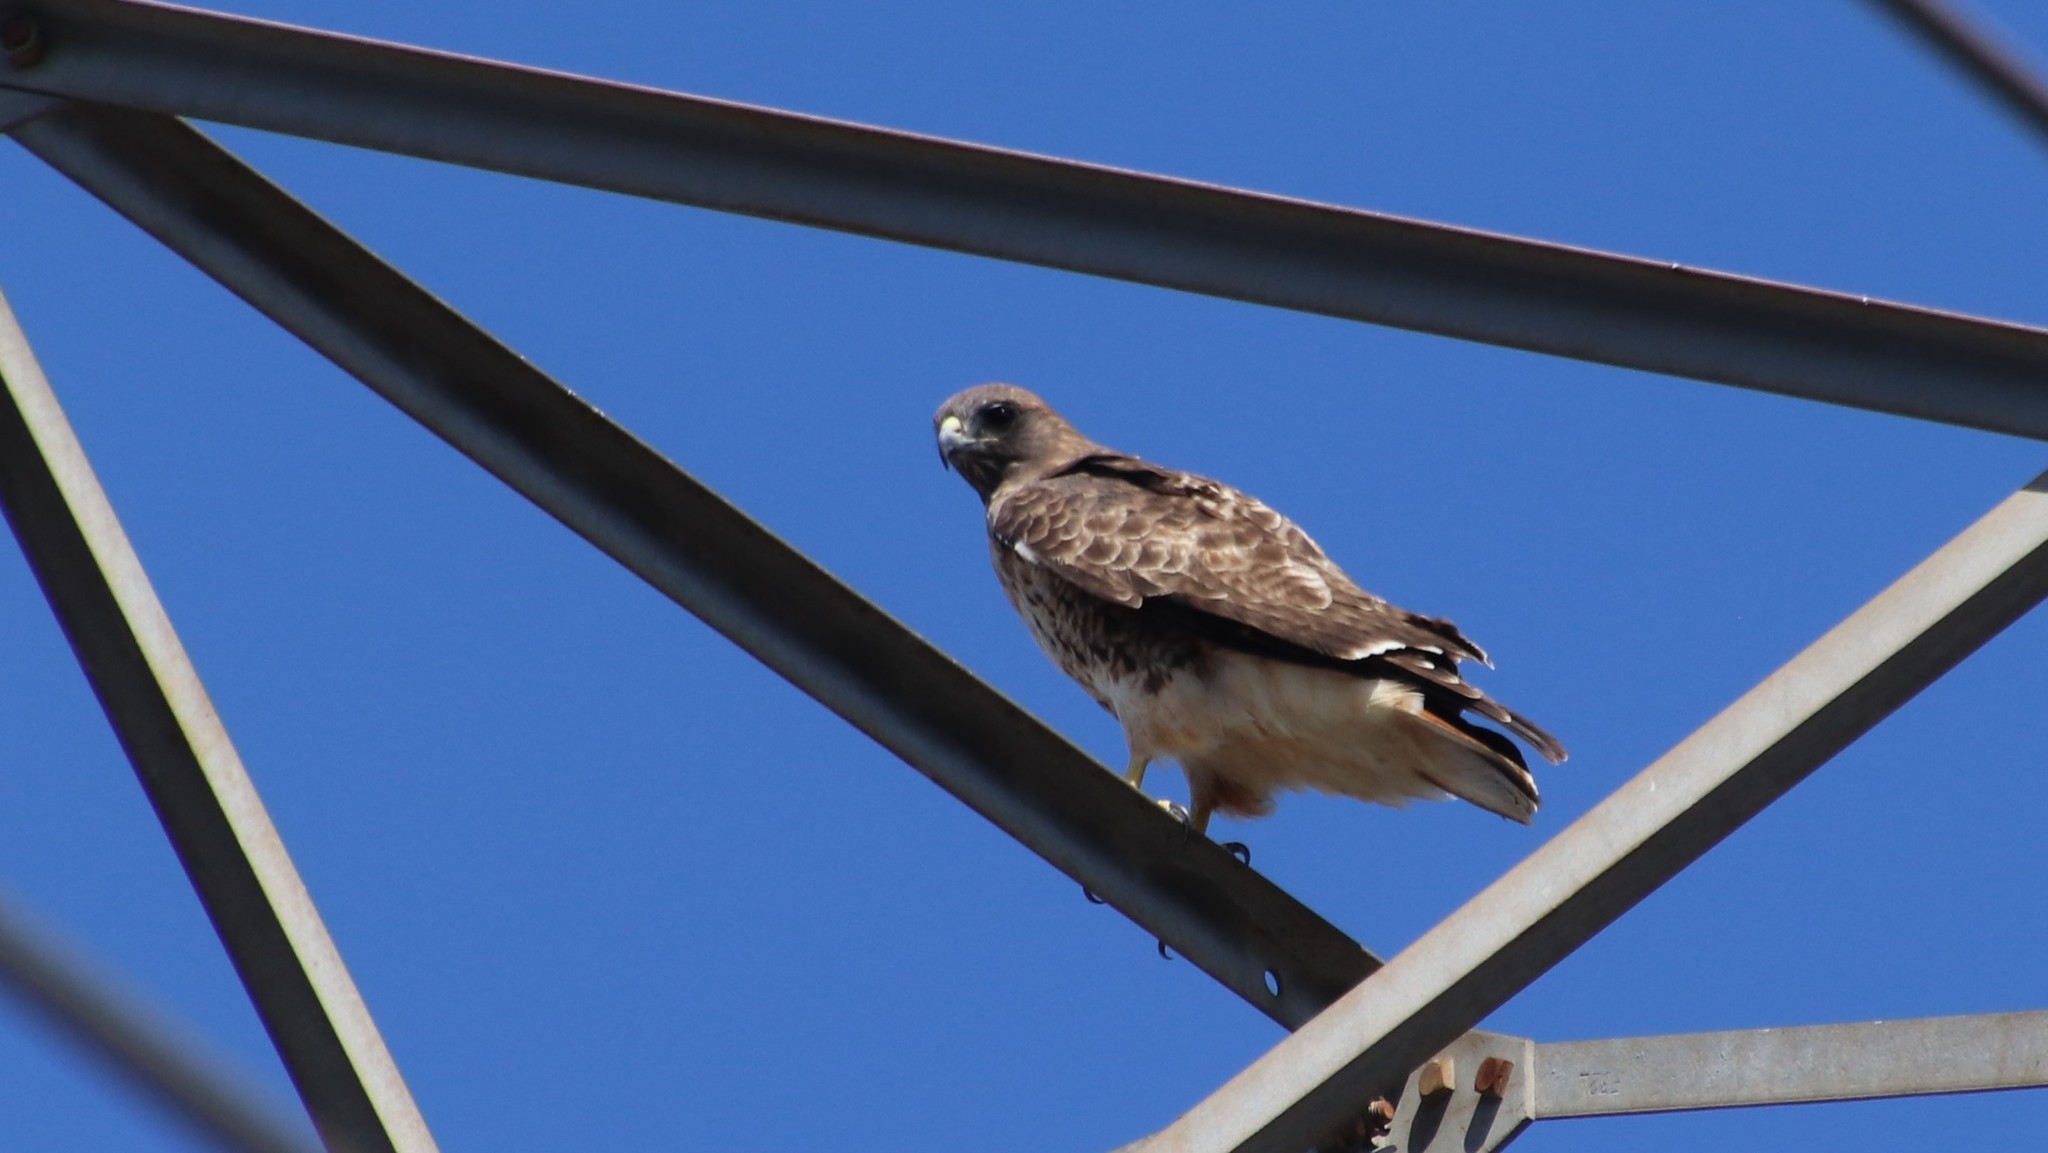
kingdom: Animalia
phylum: Chordata
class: Aves
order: Accipitriformes
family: Accipitridae
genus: Buteo
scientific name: Buteo jamaicensis
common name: Red-tailed hawk
